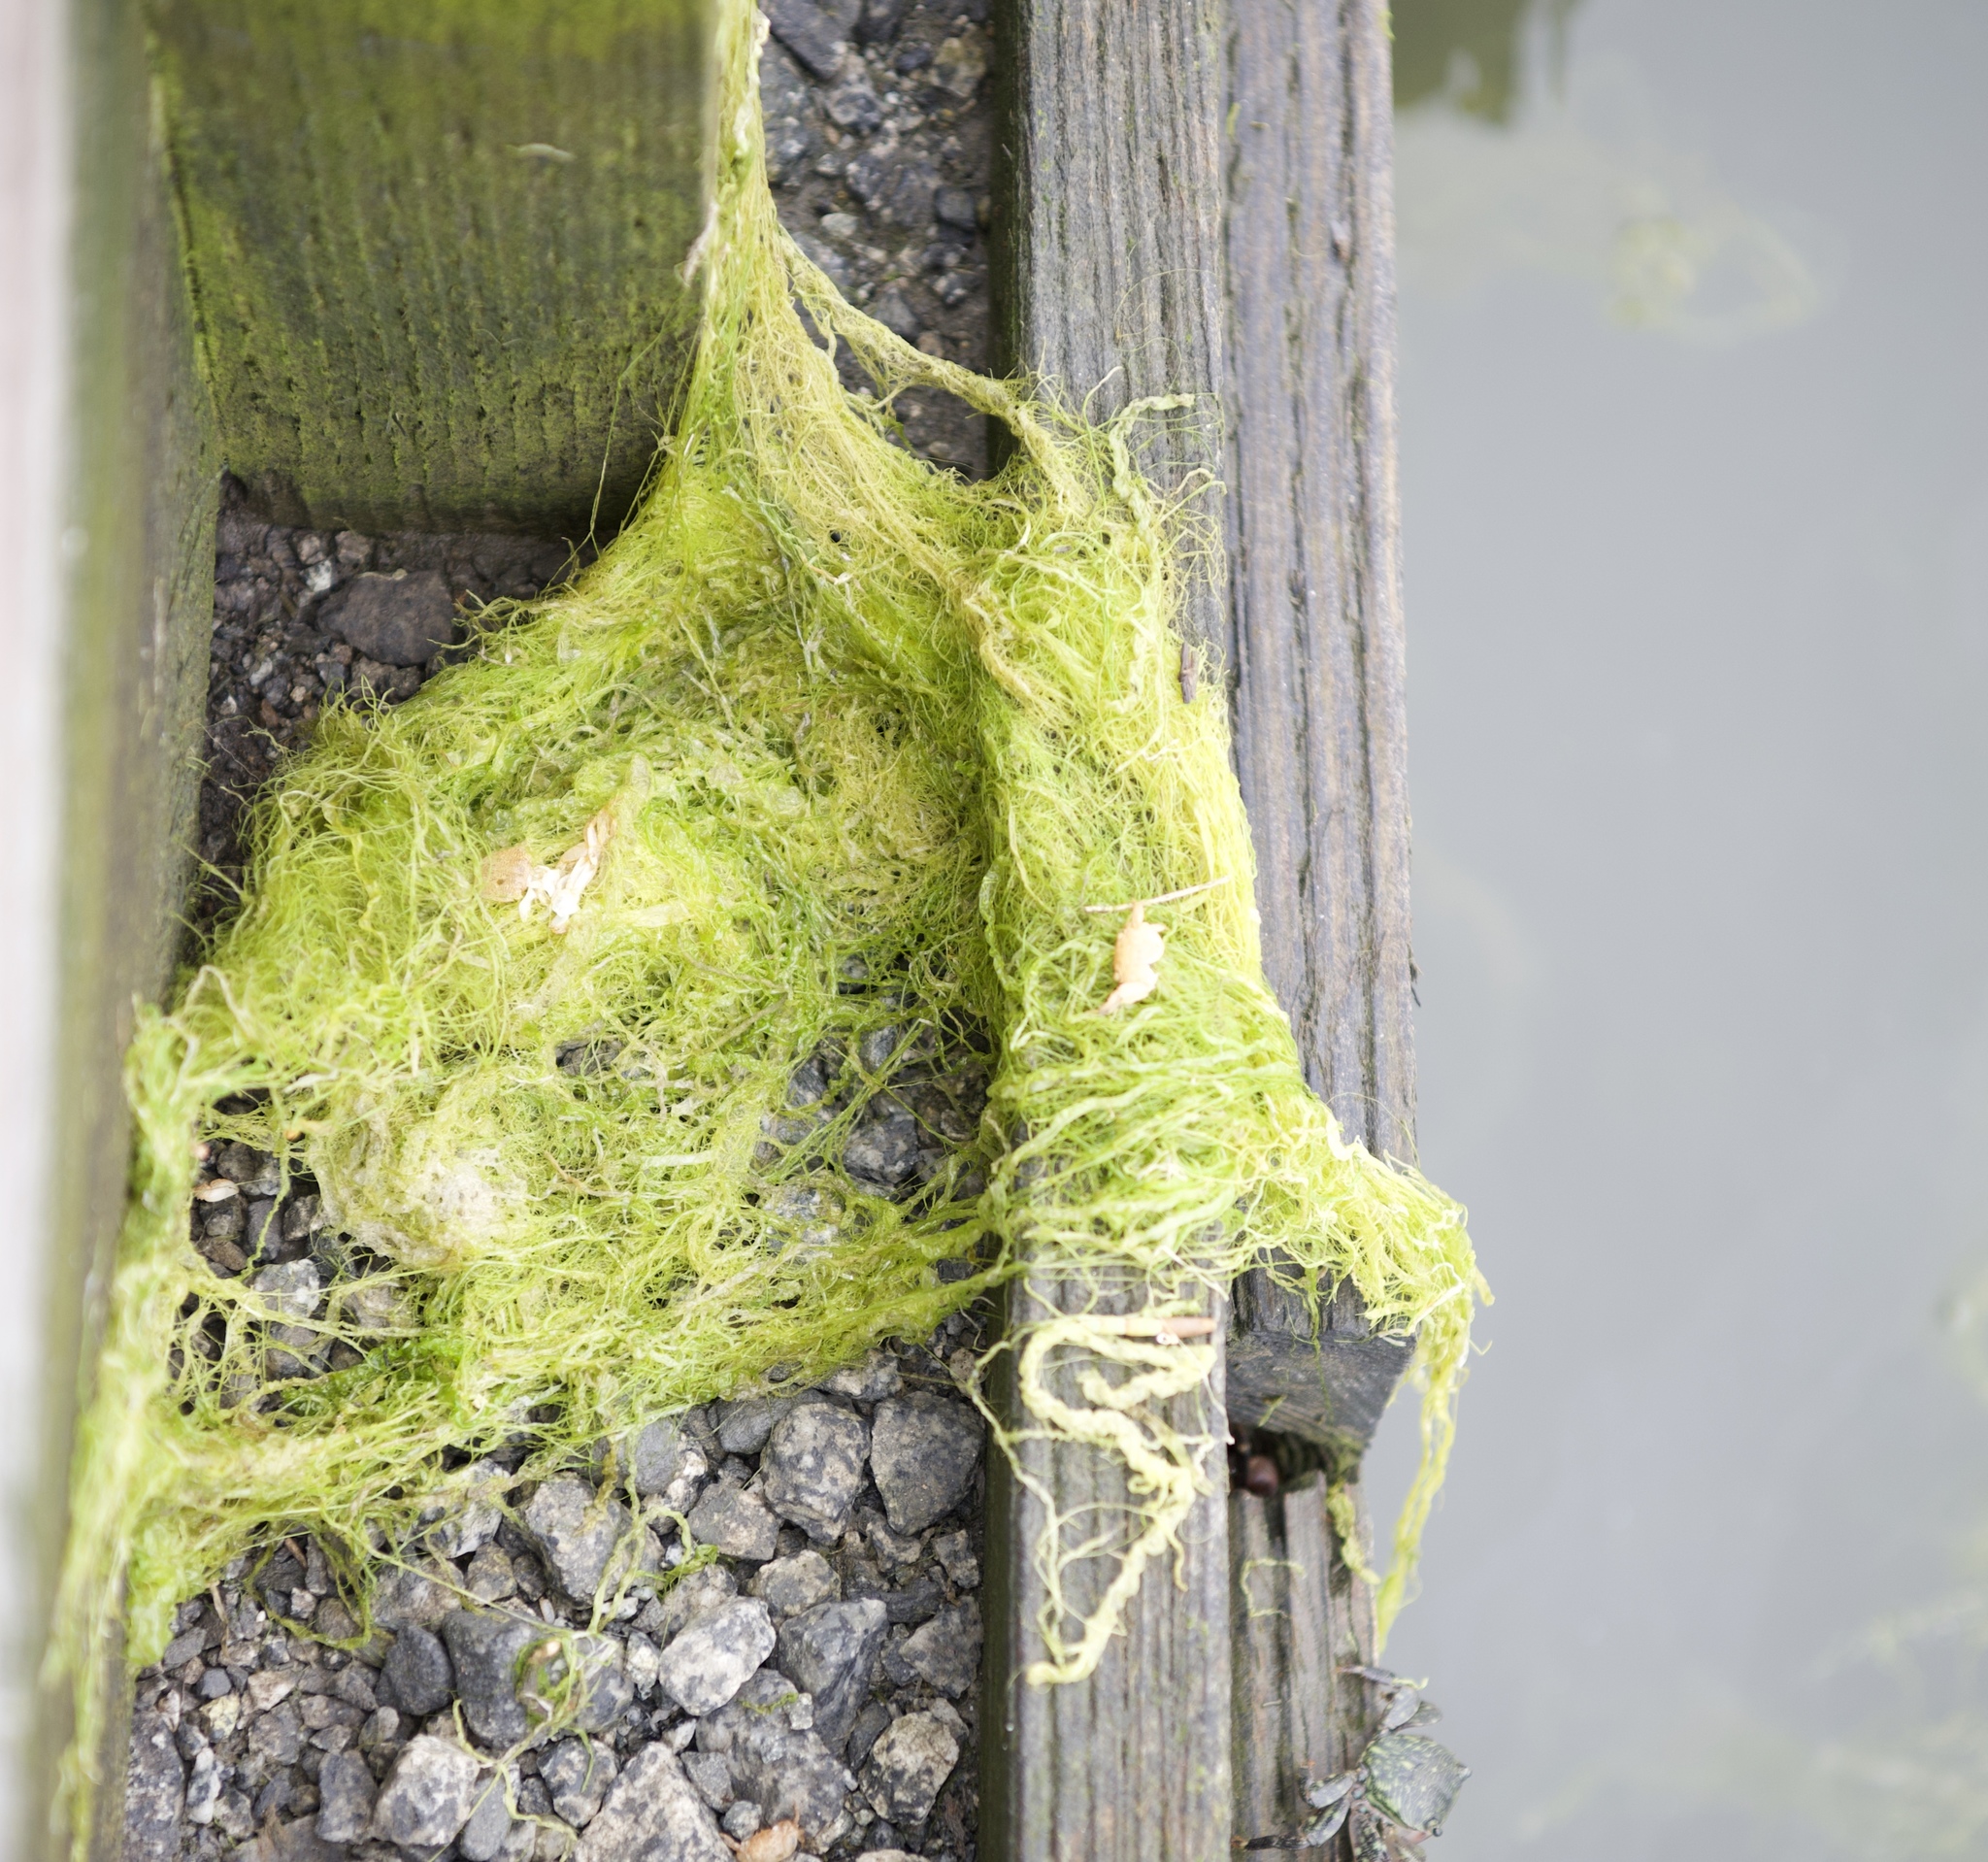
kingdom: Plantae
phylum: Chlorophyta
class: Ulvophyceae
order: Ulvales
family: Ulvaceae
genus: Ulva
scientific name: Ulva intestinalis
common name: Gut weed
